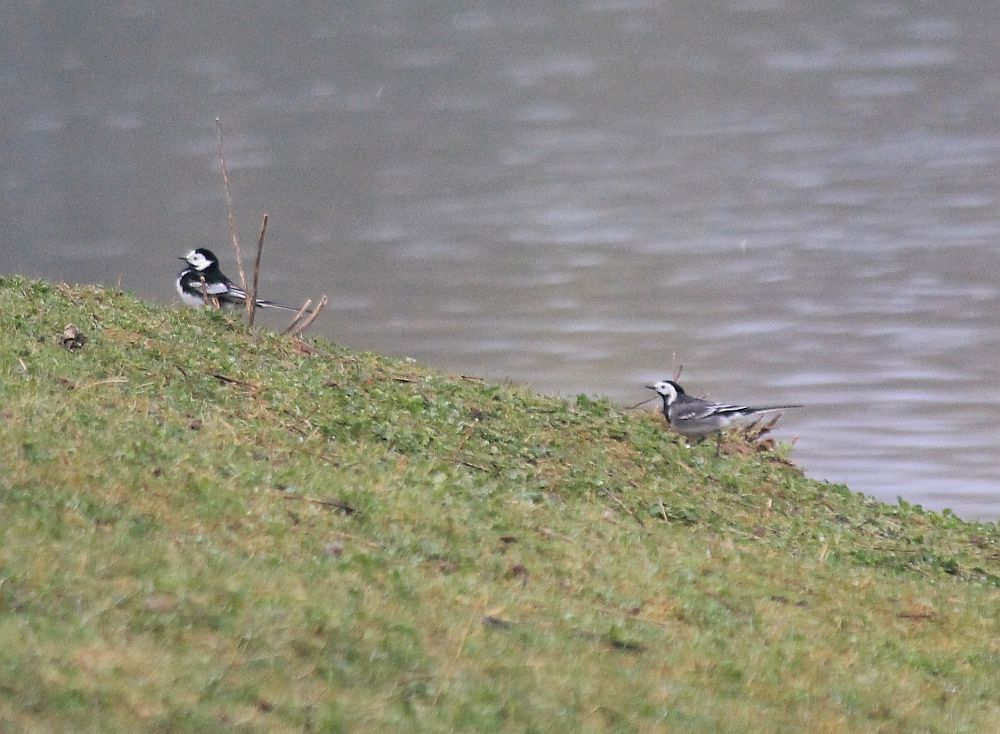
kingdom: Animalia
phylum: Chordata
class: Aves
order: Passeriformes
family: Motacillidae
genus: Motacilla
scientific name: Motacilla alba
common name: White wagtail
